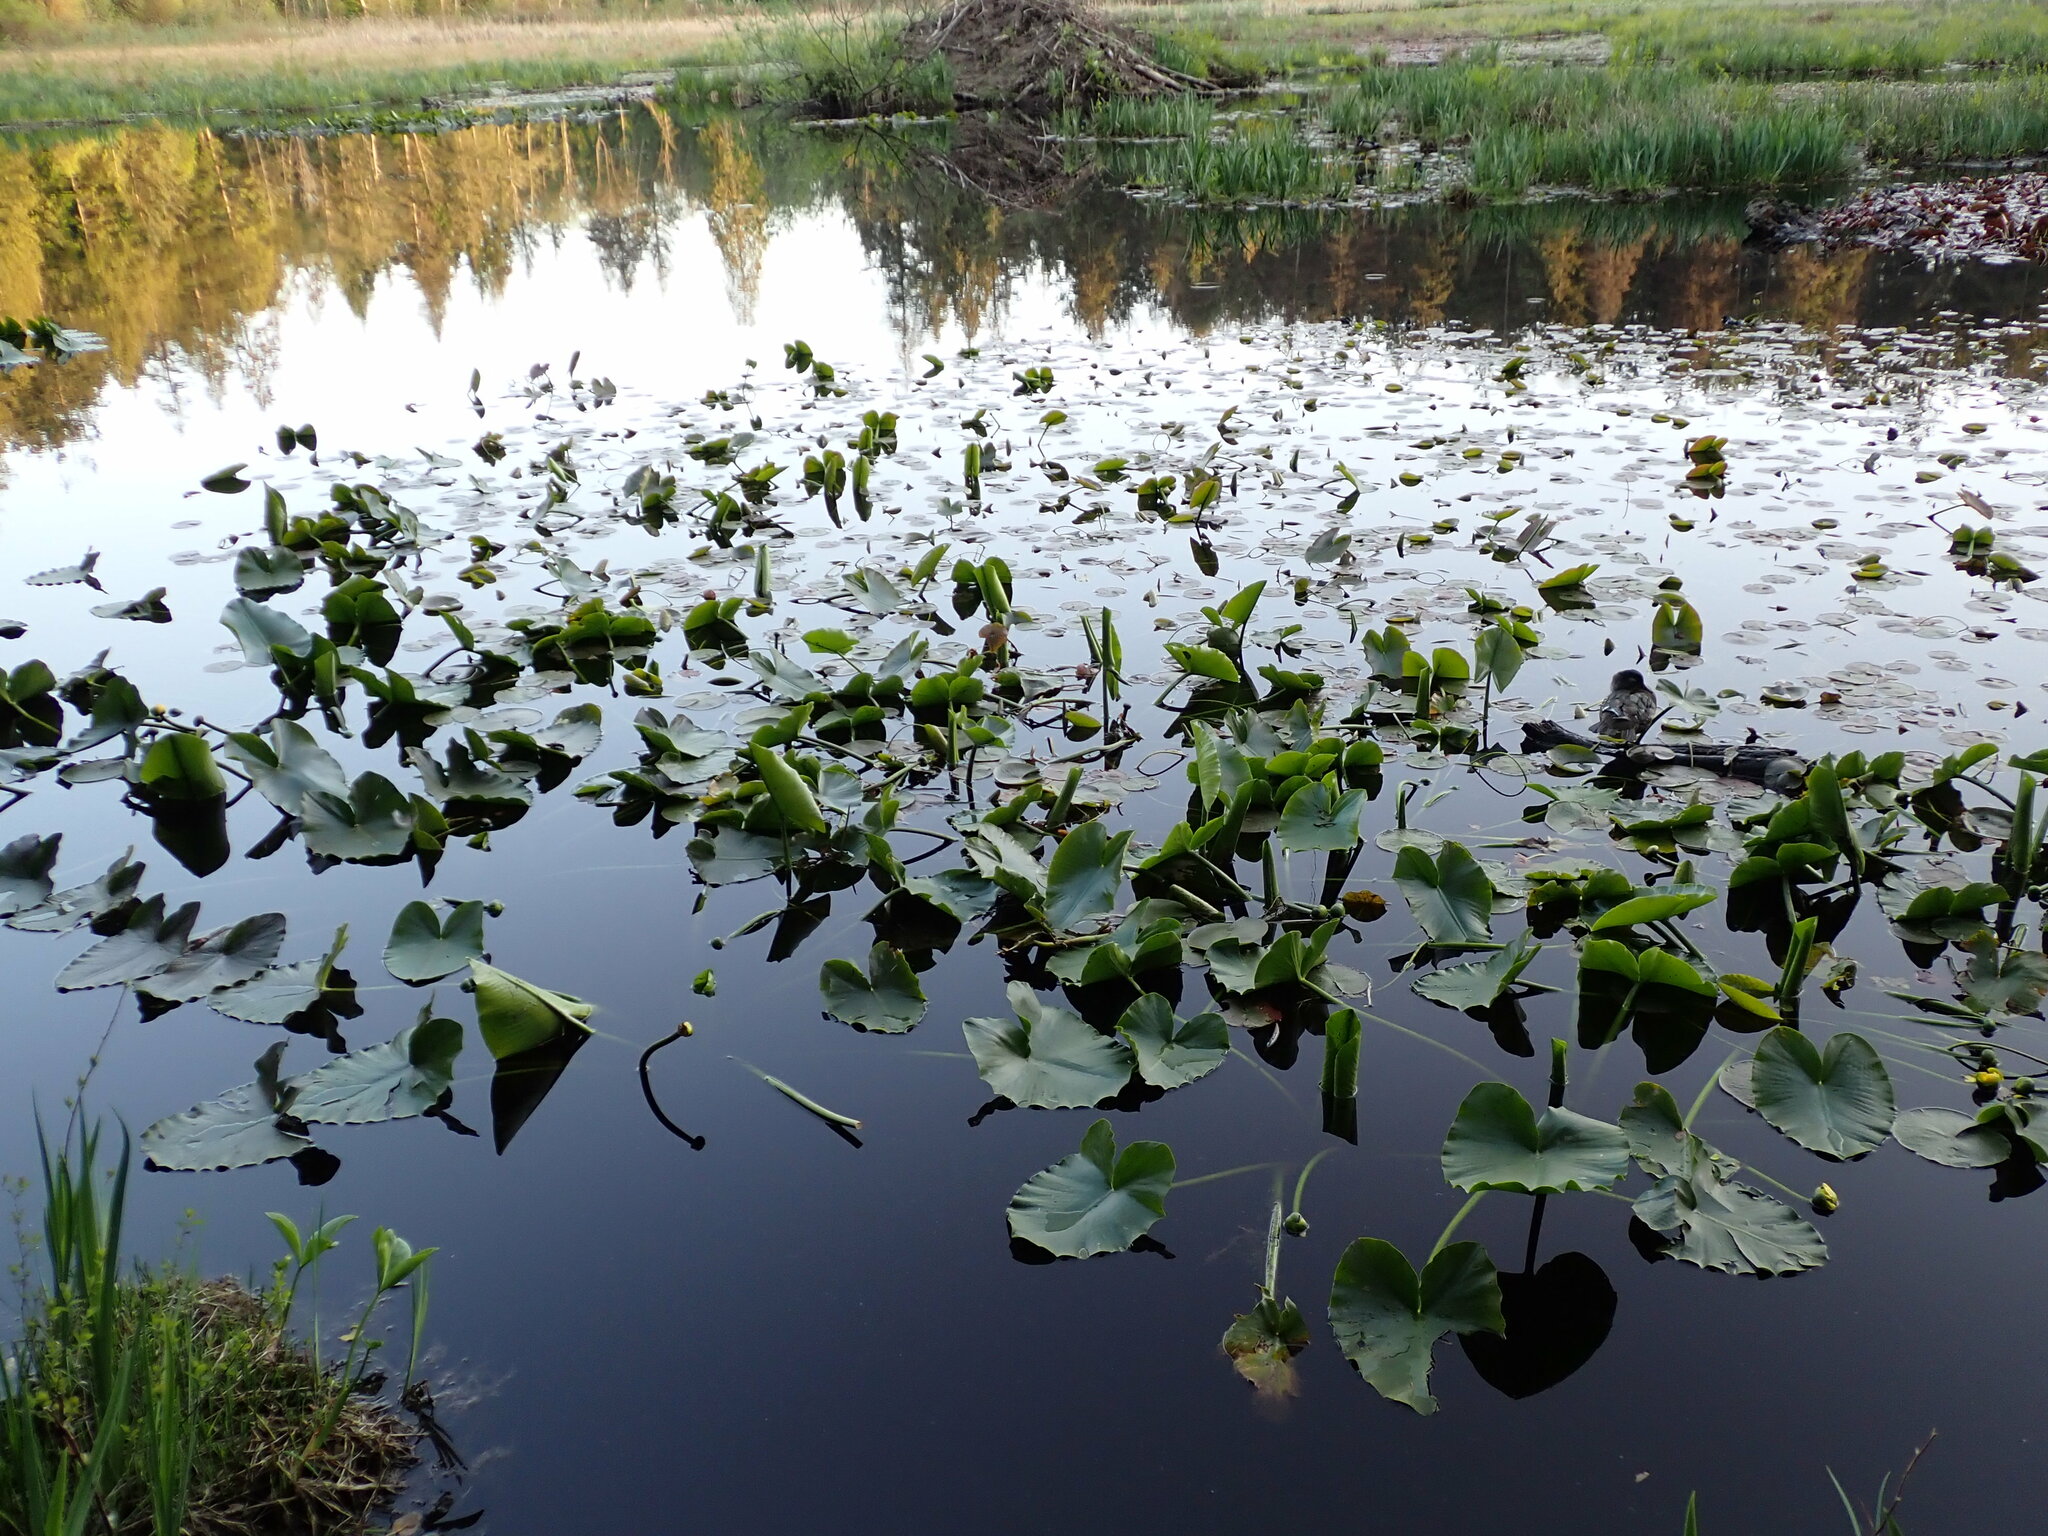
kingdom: Plantae
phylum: Tracheophyta
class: Magnoliopsida
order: Nymphaeales
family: Nymphaeaceae
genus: Nuphar
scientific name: Nuphar polysepala
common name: Rocky mountain cow-lily
